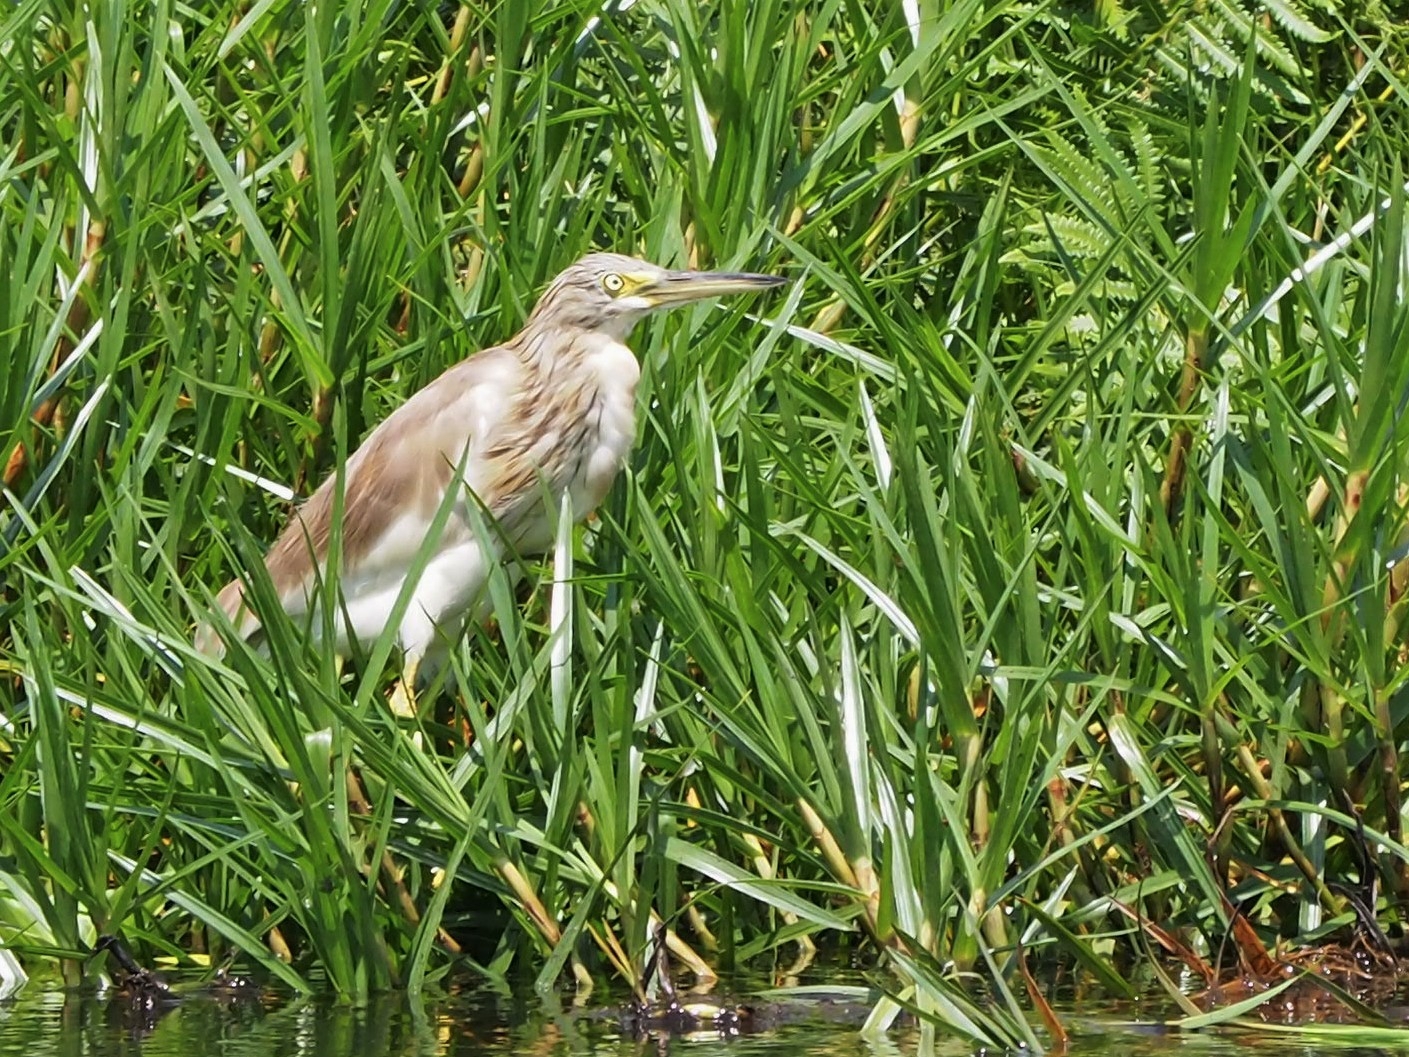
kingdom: Animalia
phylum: Chordata
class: Aves
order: Pelecaniformes
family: Ardeidae
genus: Ardeola
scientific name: Ardeola ralloides
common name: Squacco heron
